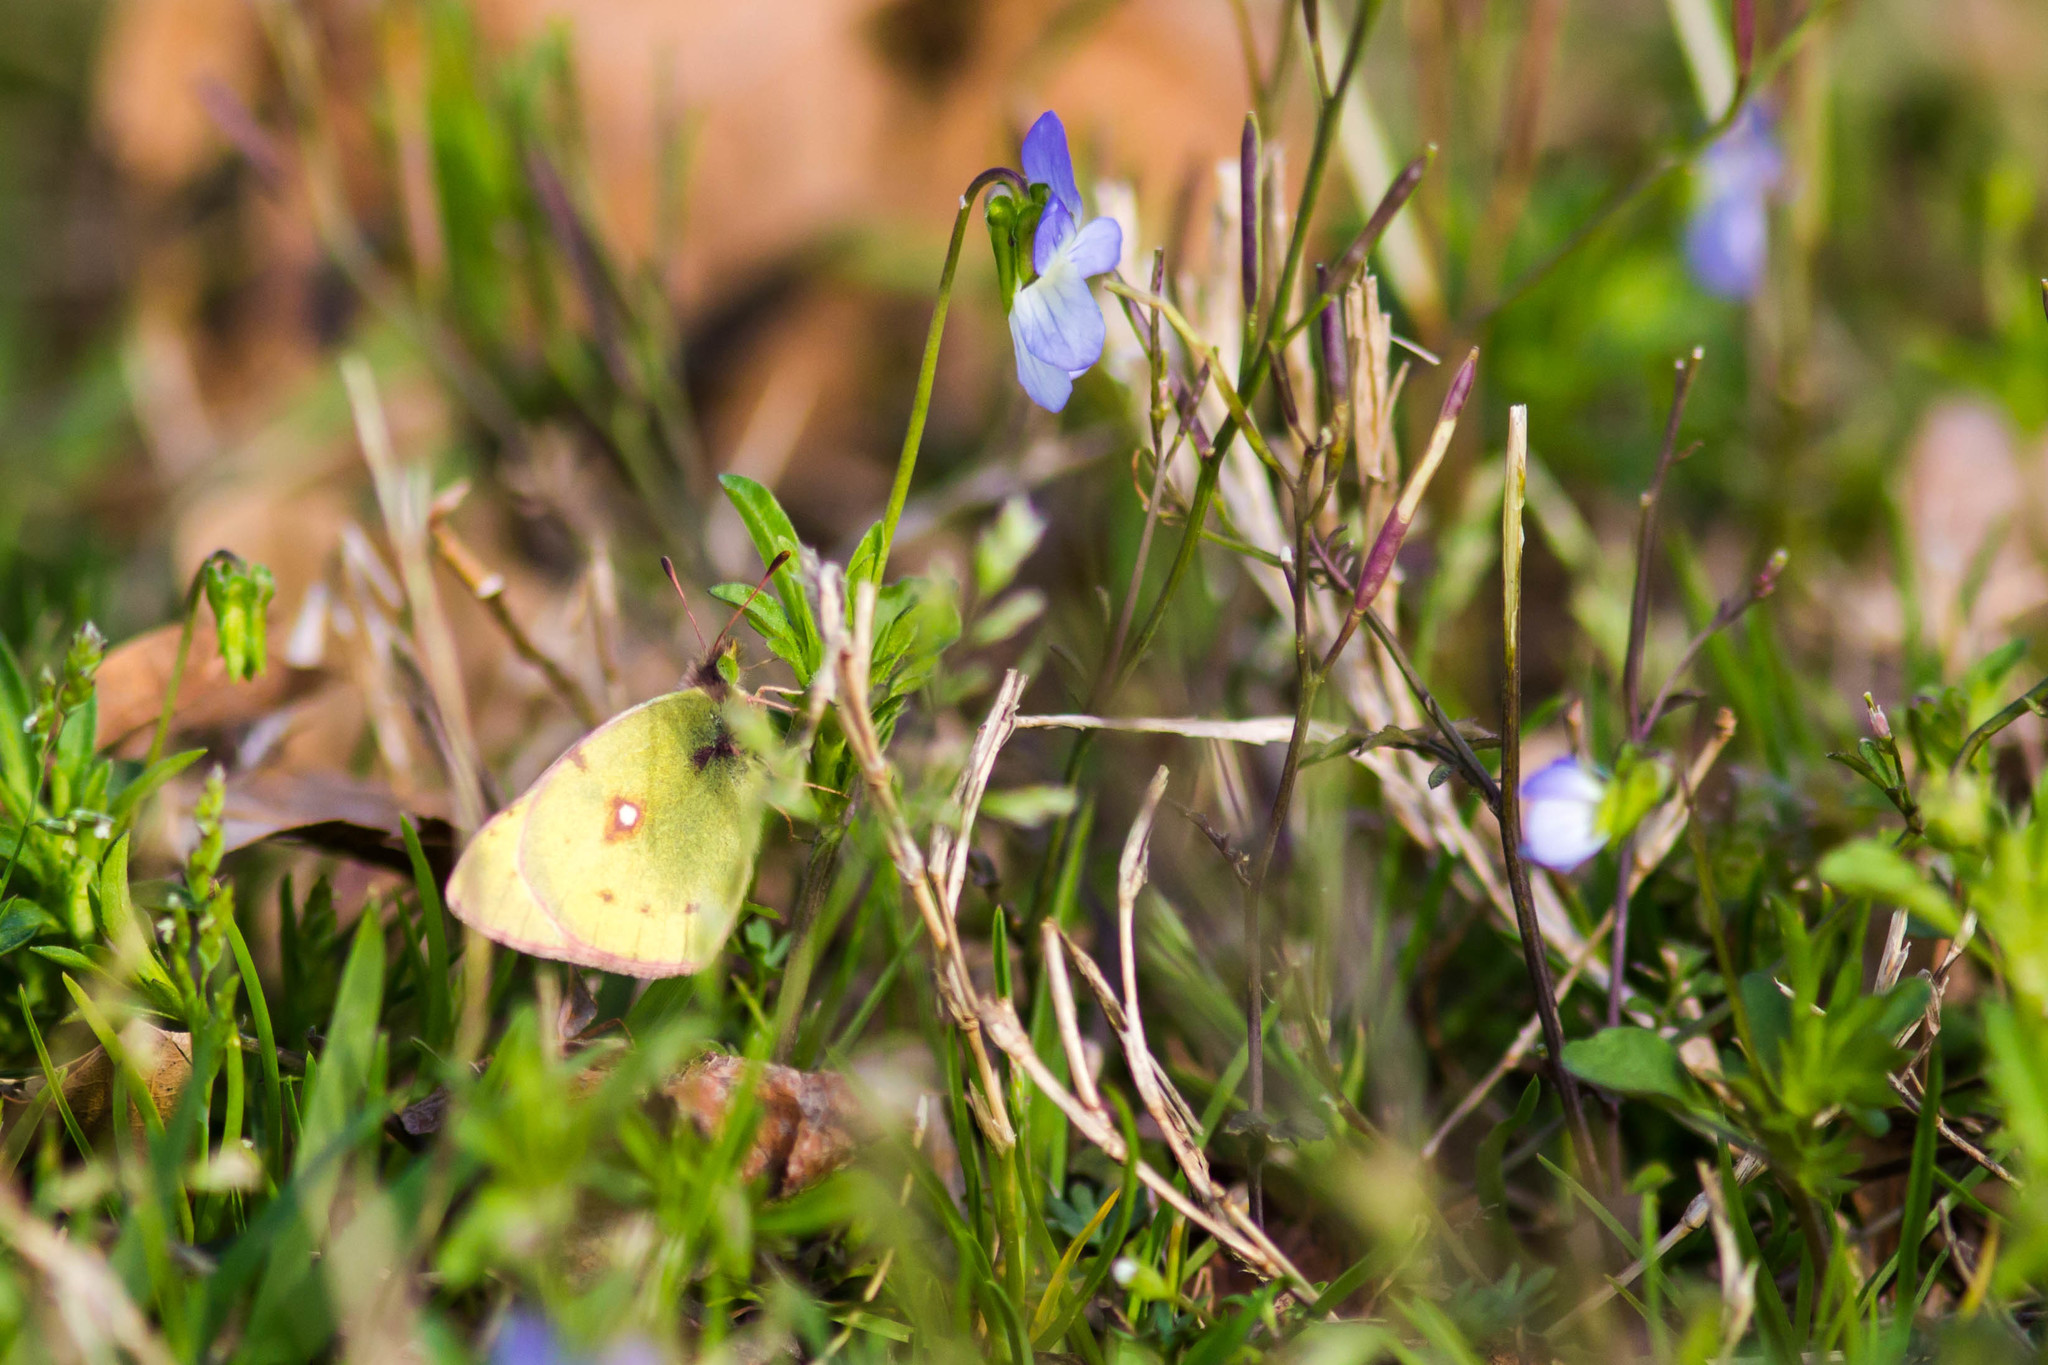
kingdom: Animalia
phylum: Arthropoda
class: Insecta
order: Lepidoptera
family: Pieridae
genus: Colias
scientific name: Colias eurytheme
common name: Alfalfa butterfly
